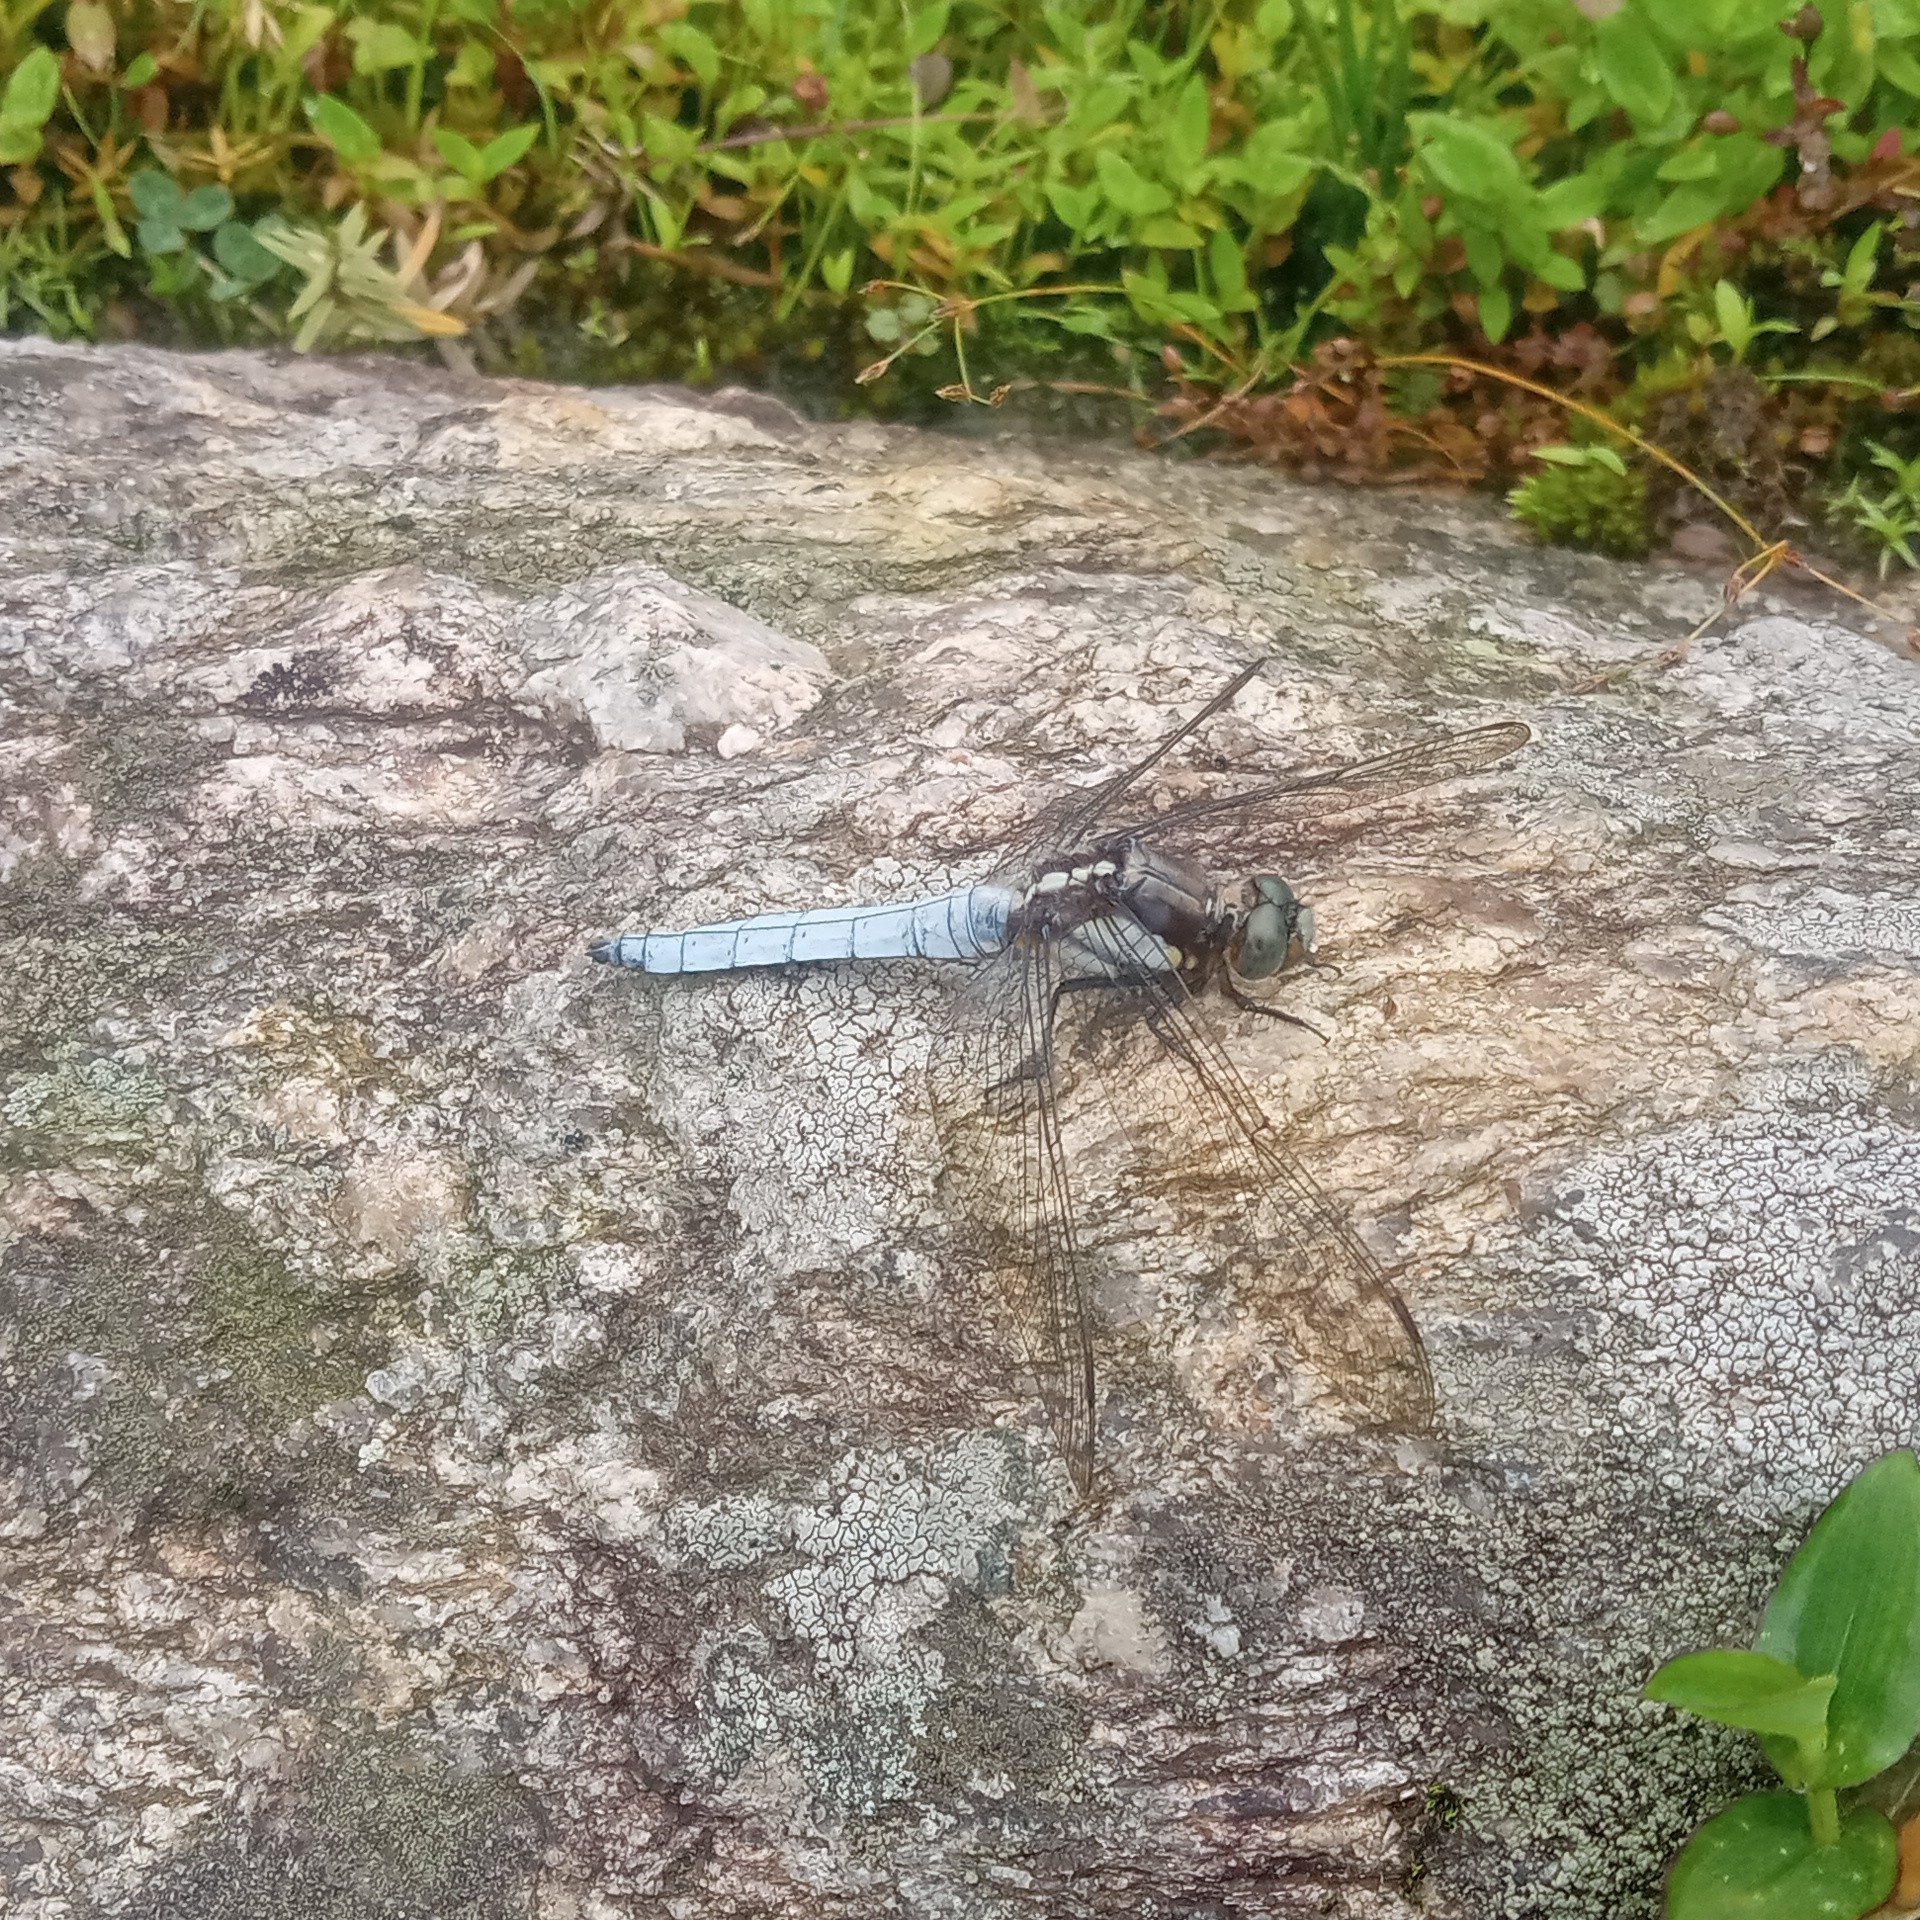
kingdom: Animalia
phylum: Arthropoda
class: Insecta
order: Odonata
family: Libellulidae
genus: Orthetrum
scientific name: Orthetrum internum
